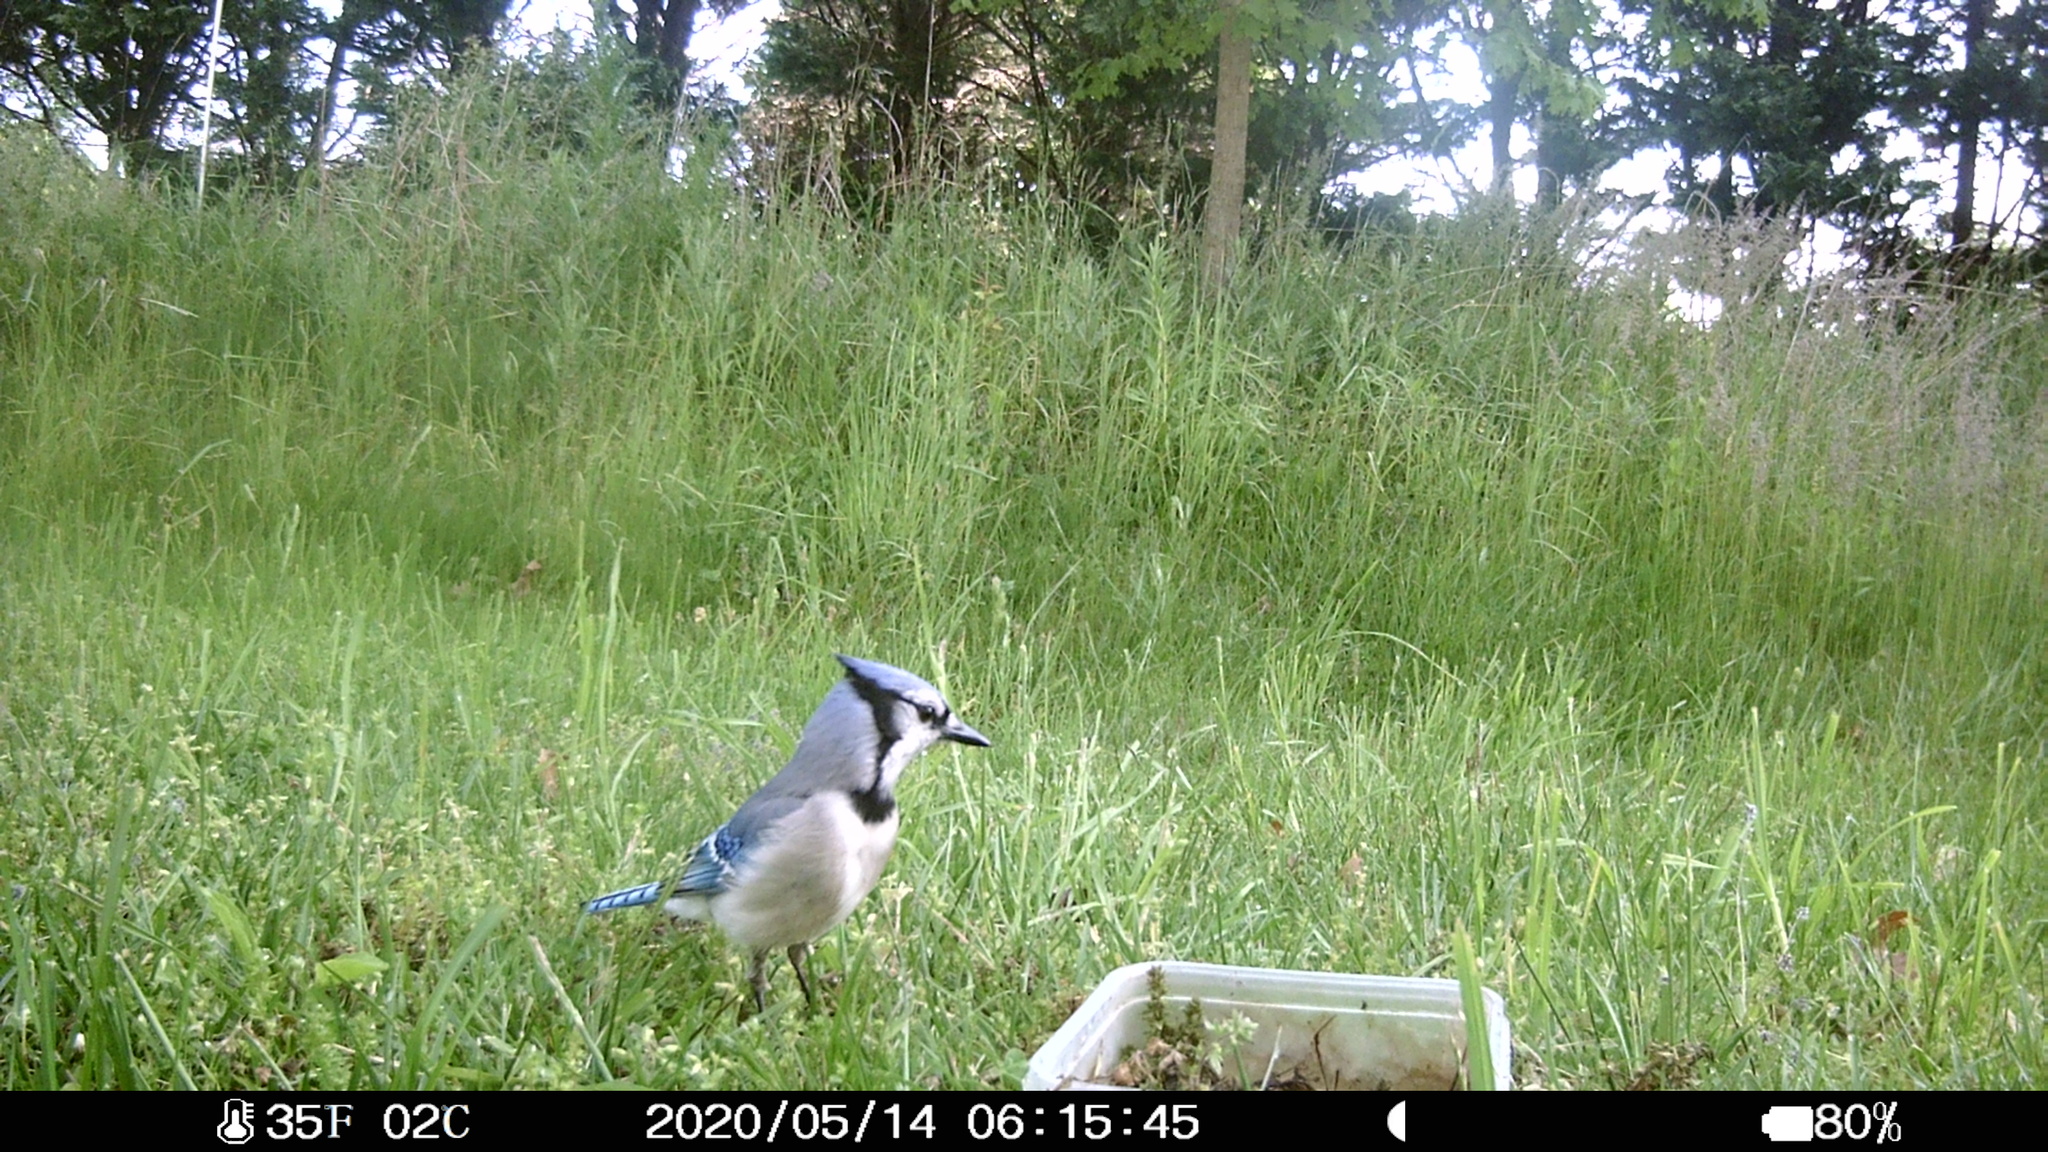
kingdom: Animalia
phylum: Chordata
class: Aves
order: Passeriformes
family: Corvidae
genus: Cyanocitta
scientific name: Cyanocitta cristata
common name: Blue jay
